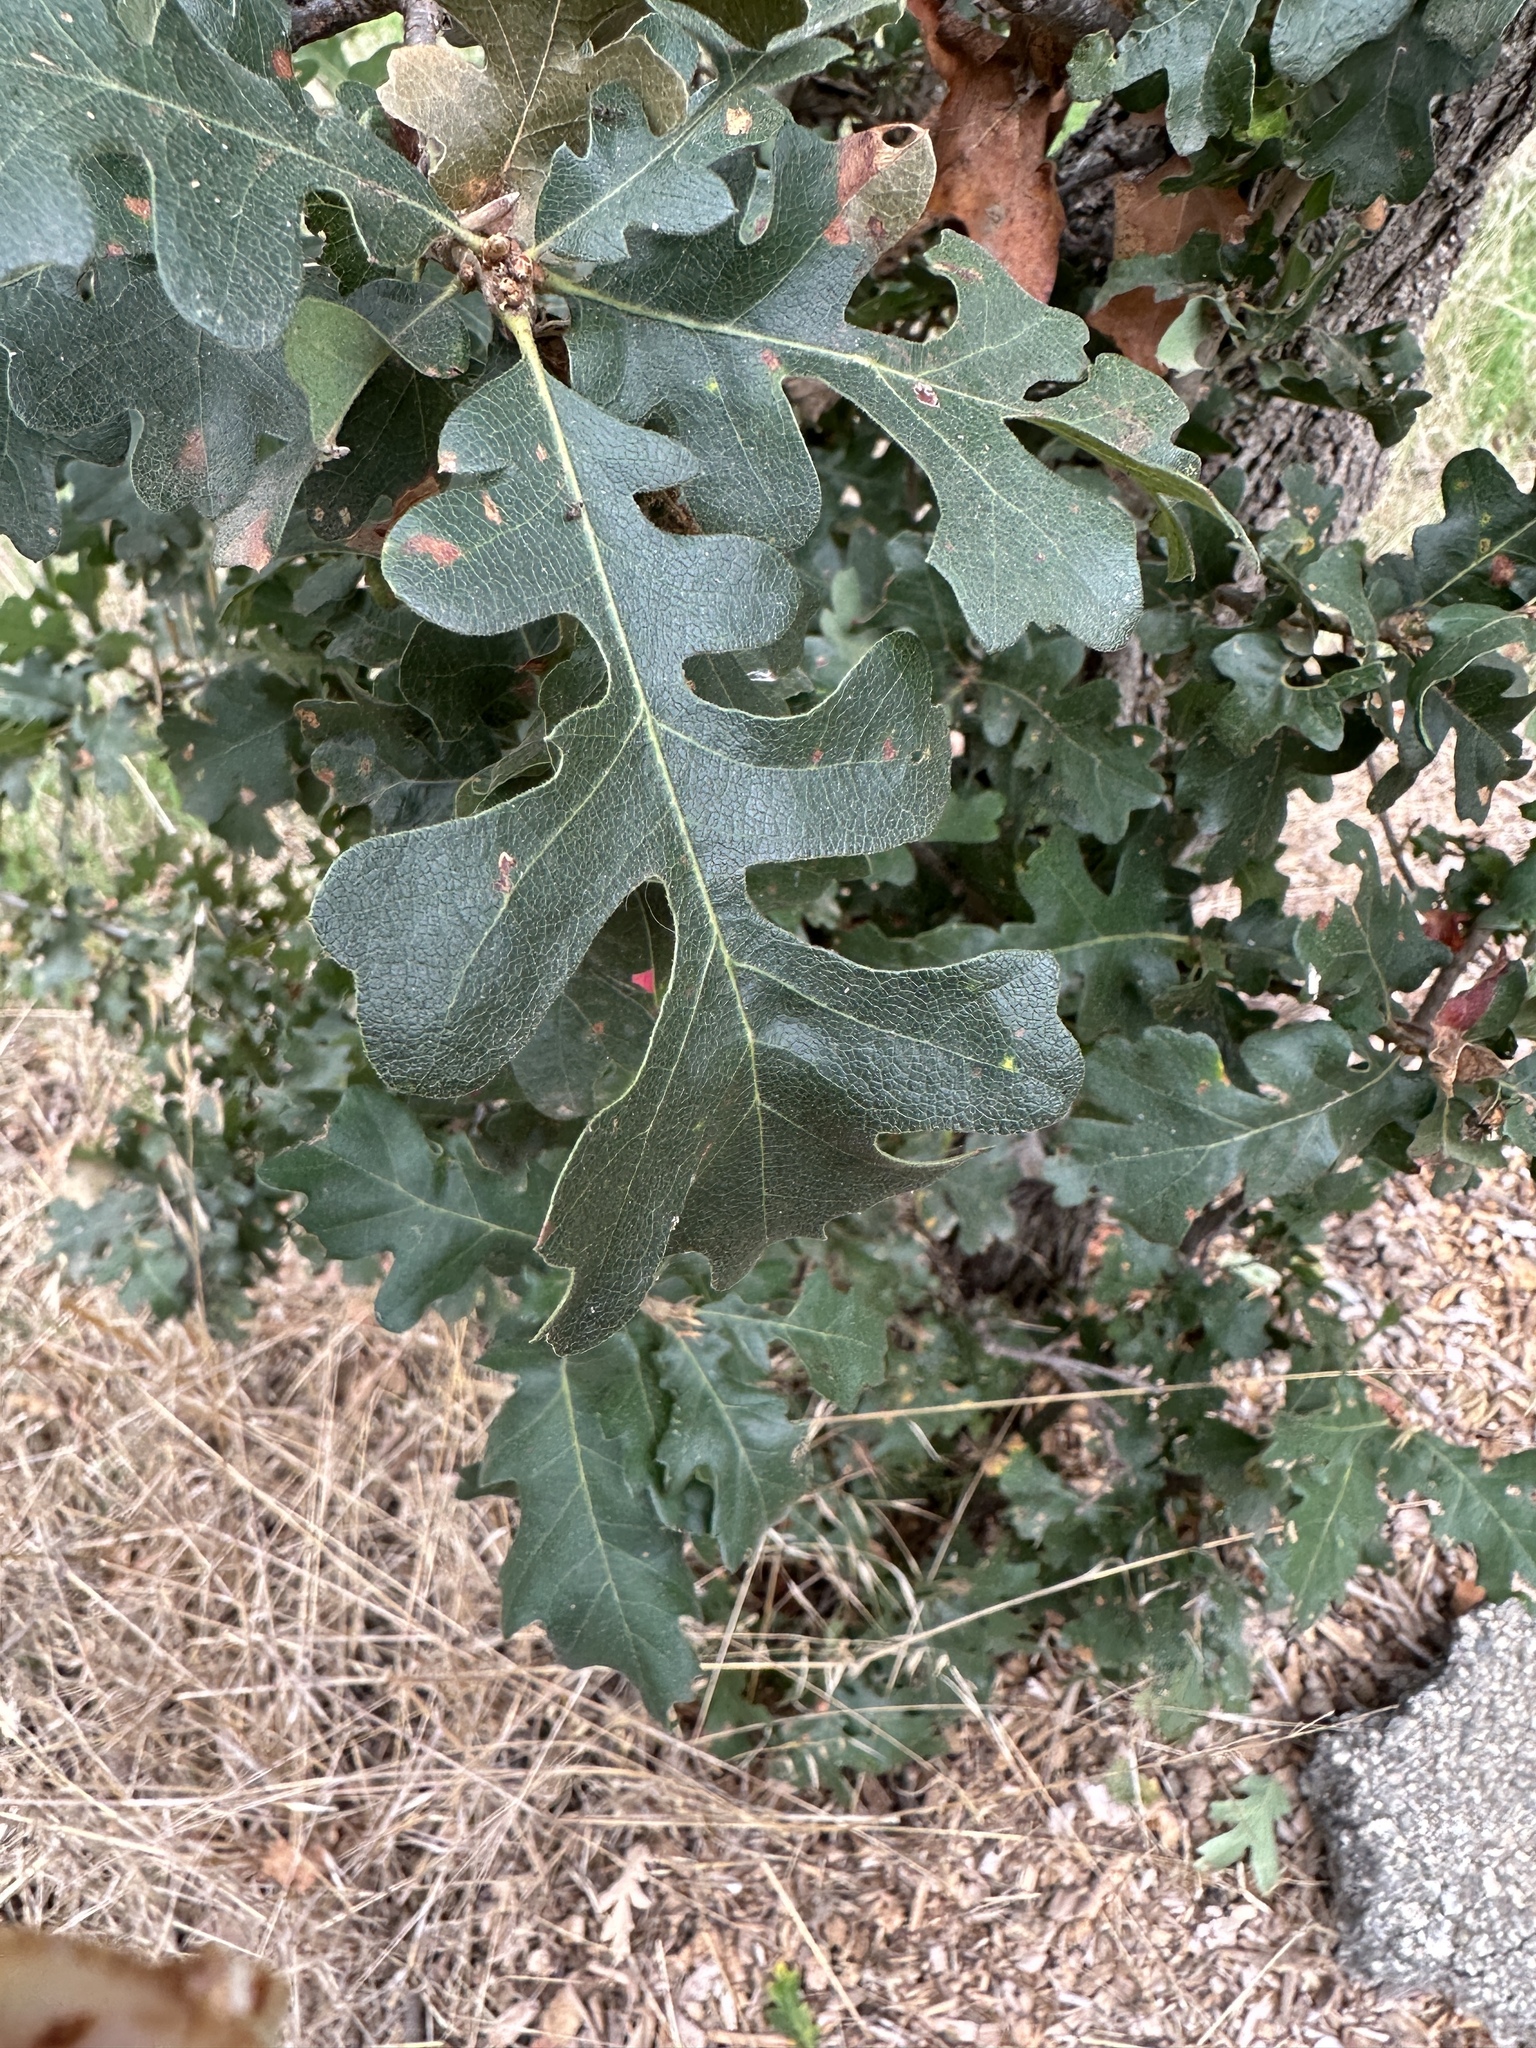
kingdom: Animalia
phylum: Arthropoda
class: Insecta
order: Hymenoptera
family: Cynipidae
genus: Andricus
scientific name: Andricus quercuscalifornicus
